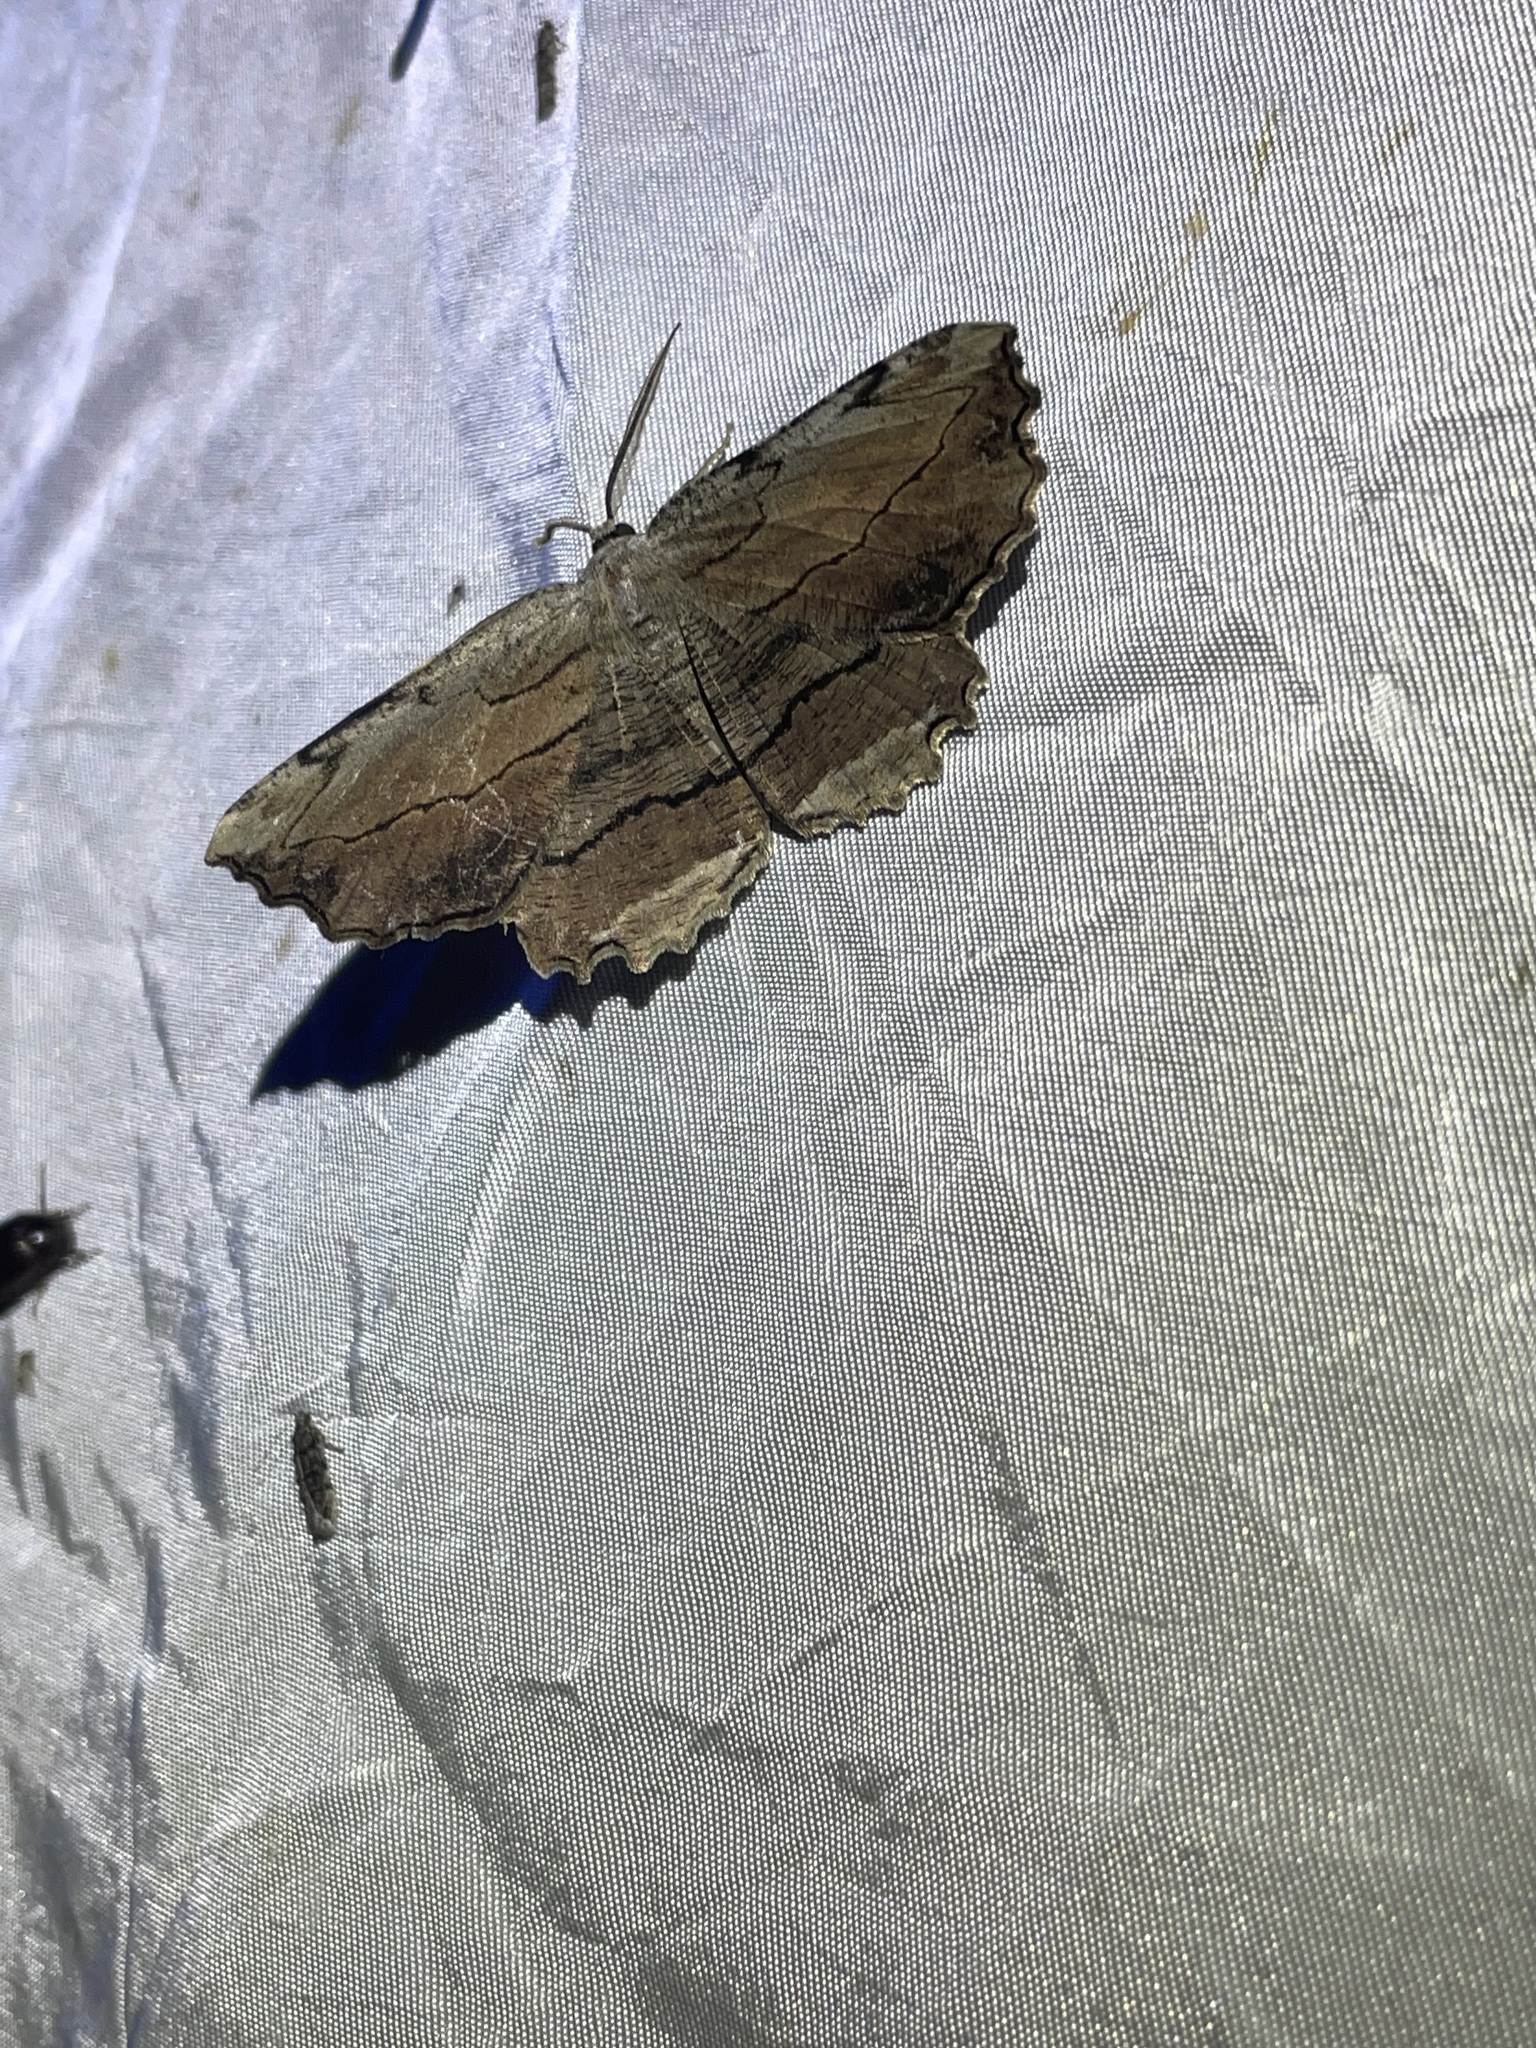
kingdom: Animalia
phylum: Arthropoda
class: Insecta
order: Lepidoptera
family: Geometridae
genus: Lytrosis
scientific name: Lytrosis unitaria
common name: Common lytrosis
